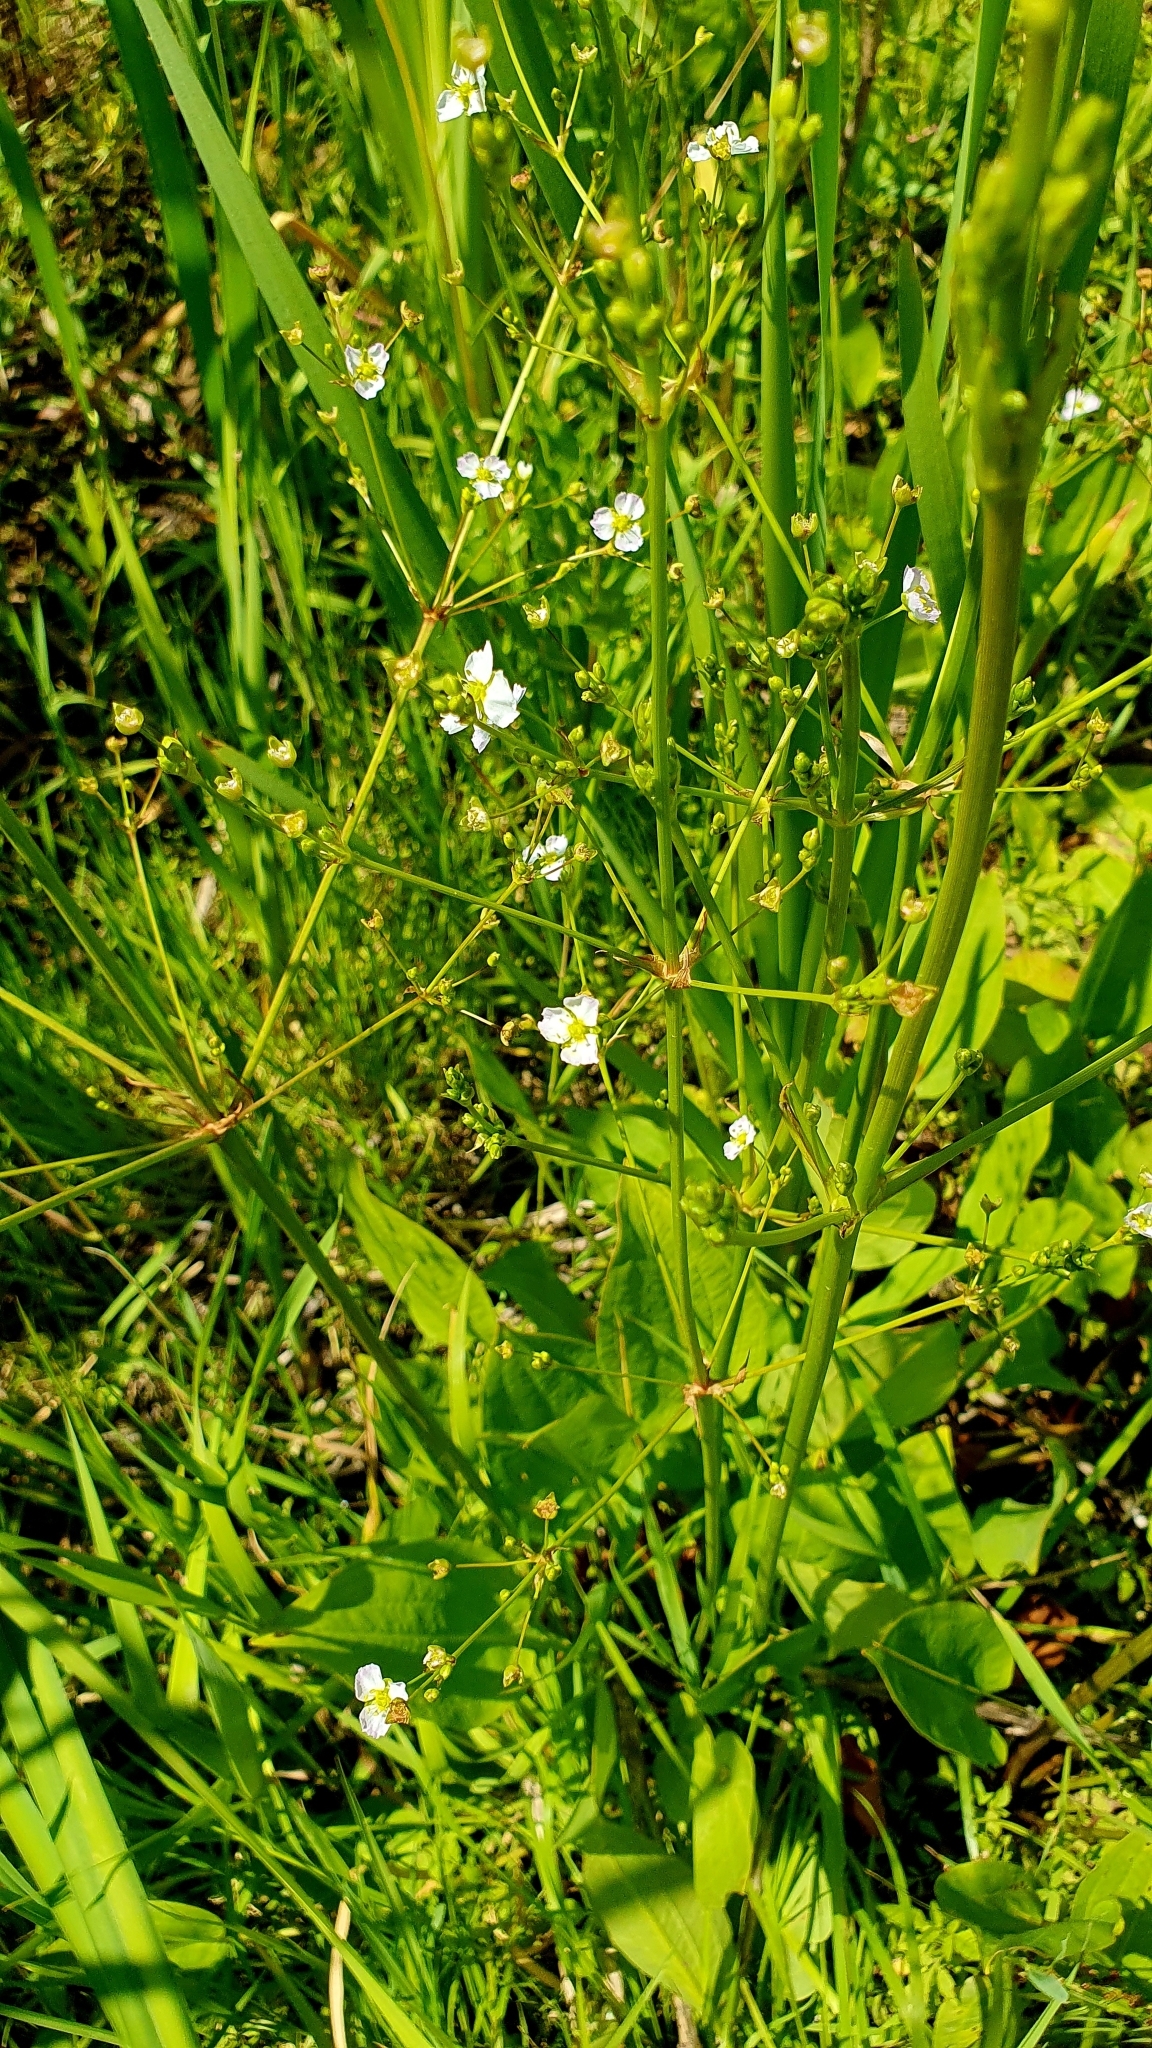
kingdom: Plantae
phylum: Tracheophyta
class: Liliopsida
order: Alismatales
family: Alismataceae
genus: Alisma
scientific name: Alisma plantago-aquatica
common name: Water-plantain
